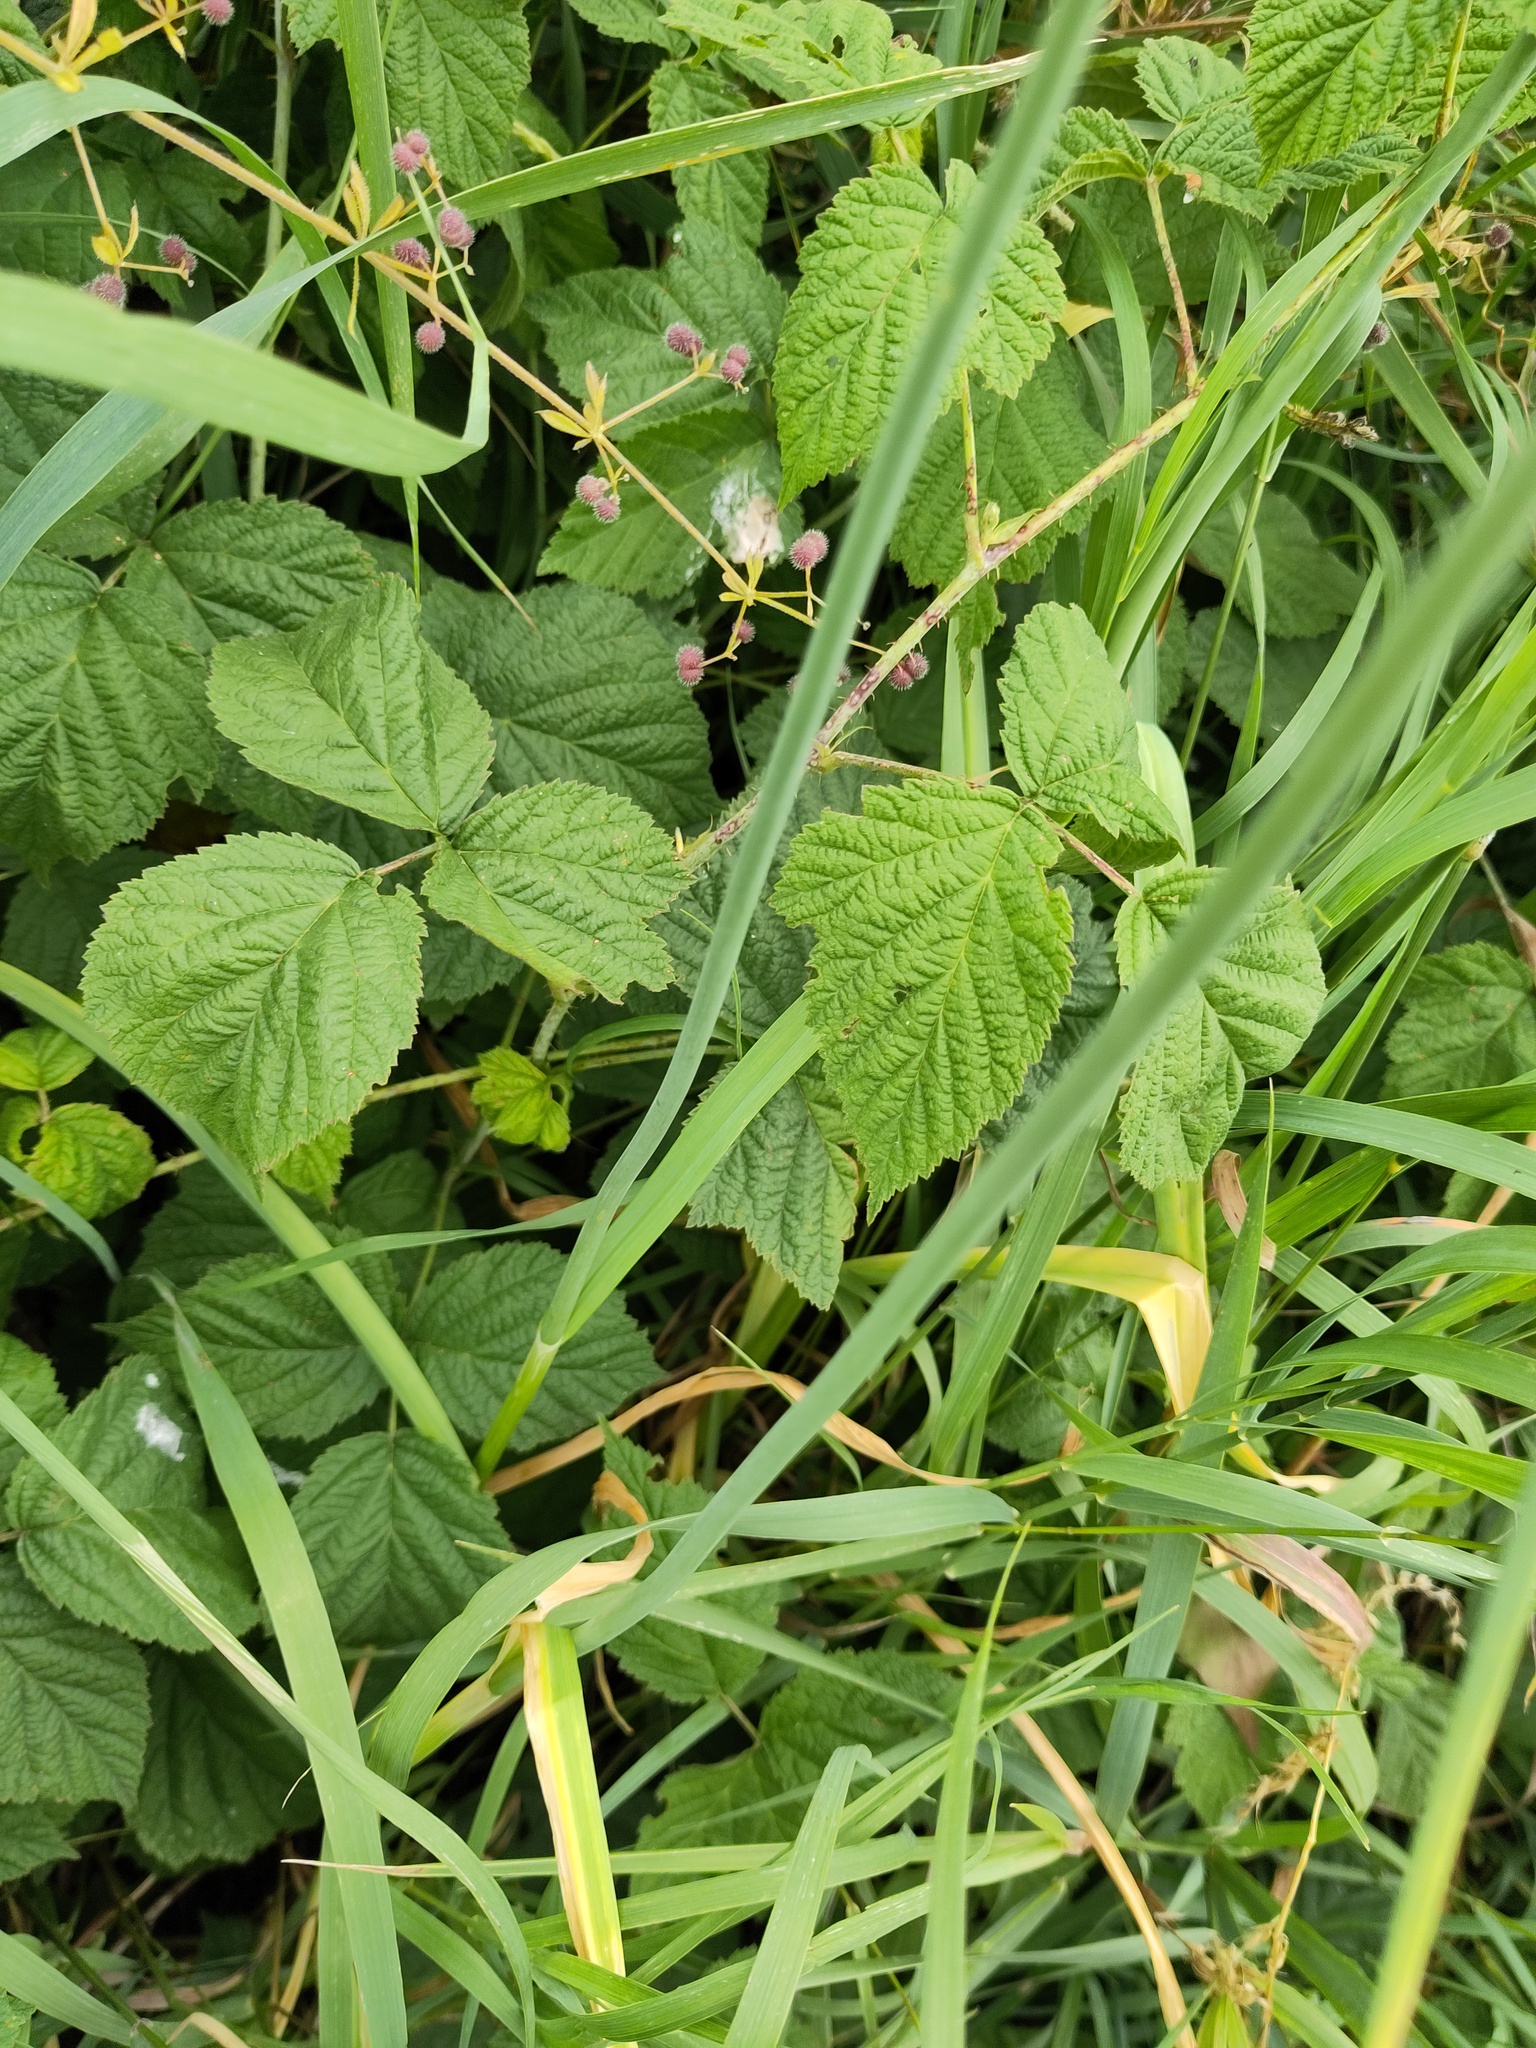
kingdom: Plantae
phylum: Tracheophyta
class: Magnoliopsida
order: Rosales
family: Rosaceae
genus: Rubus
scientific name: Rubus caesius
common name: Dewberry
